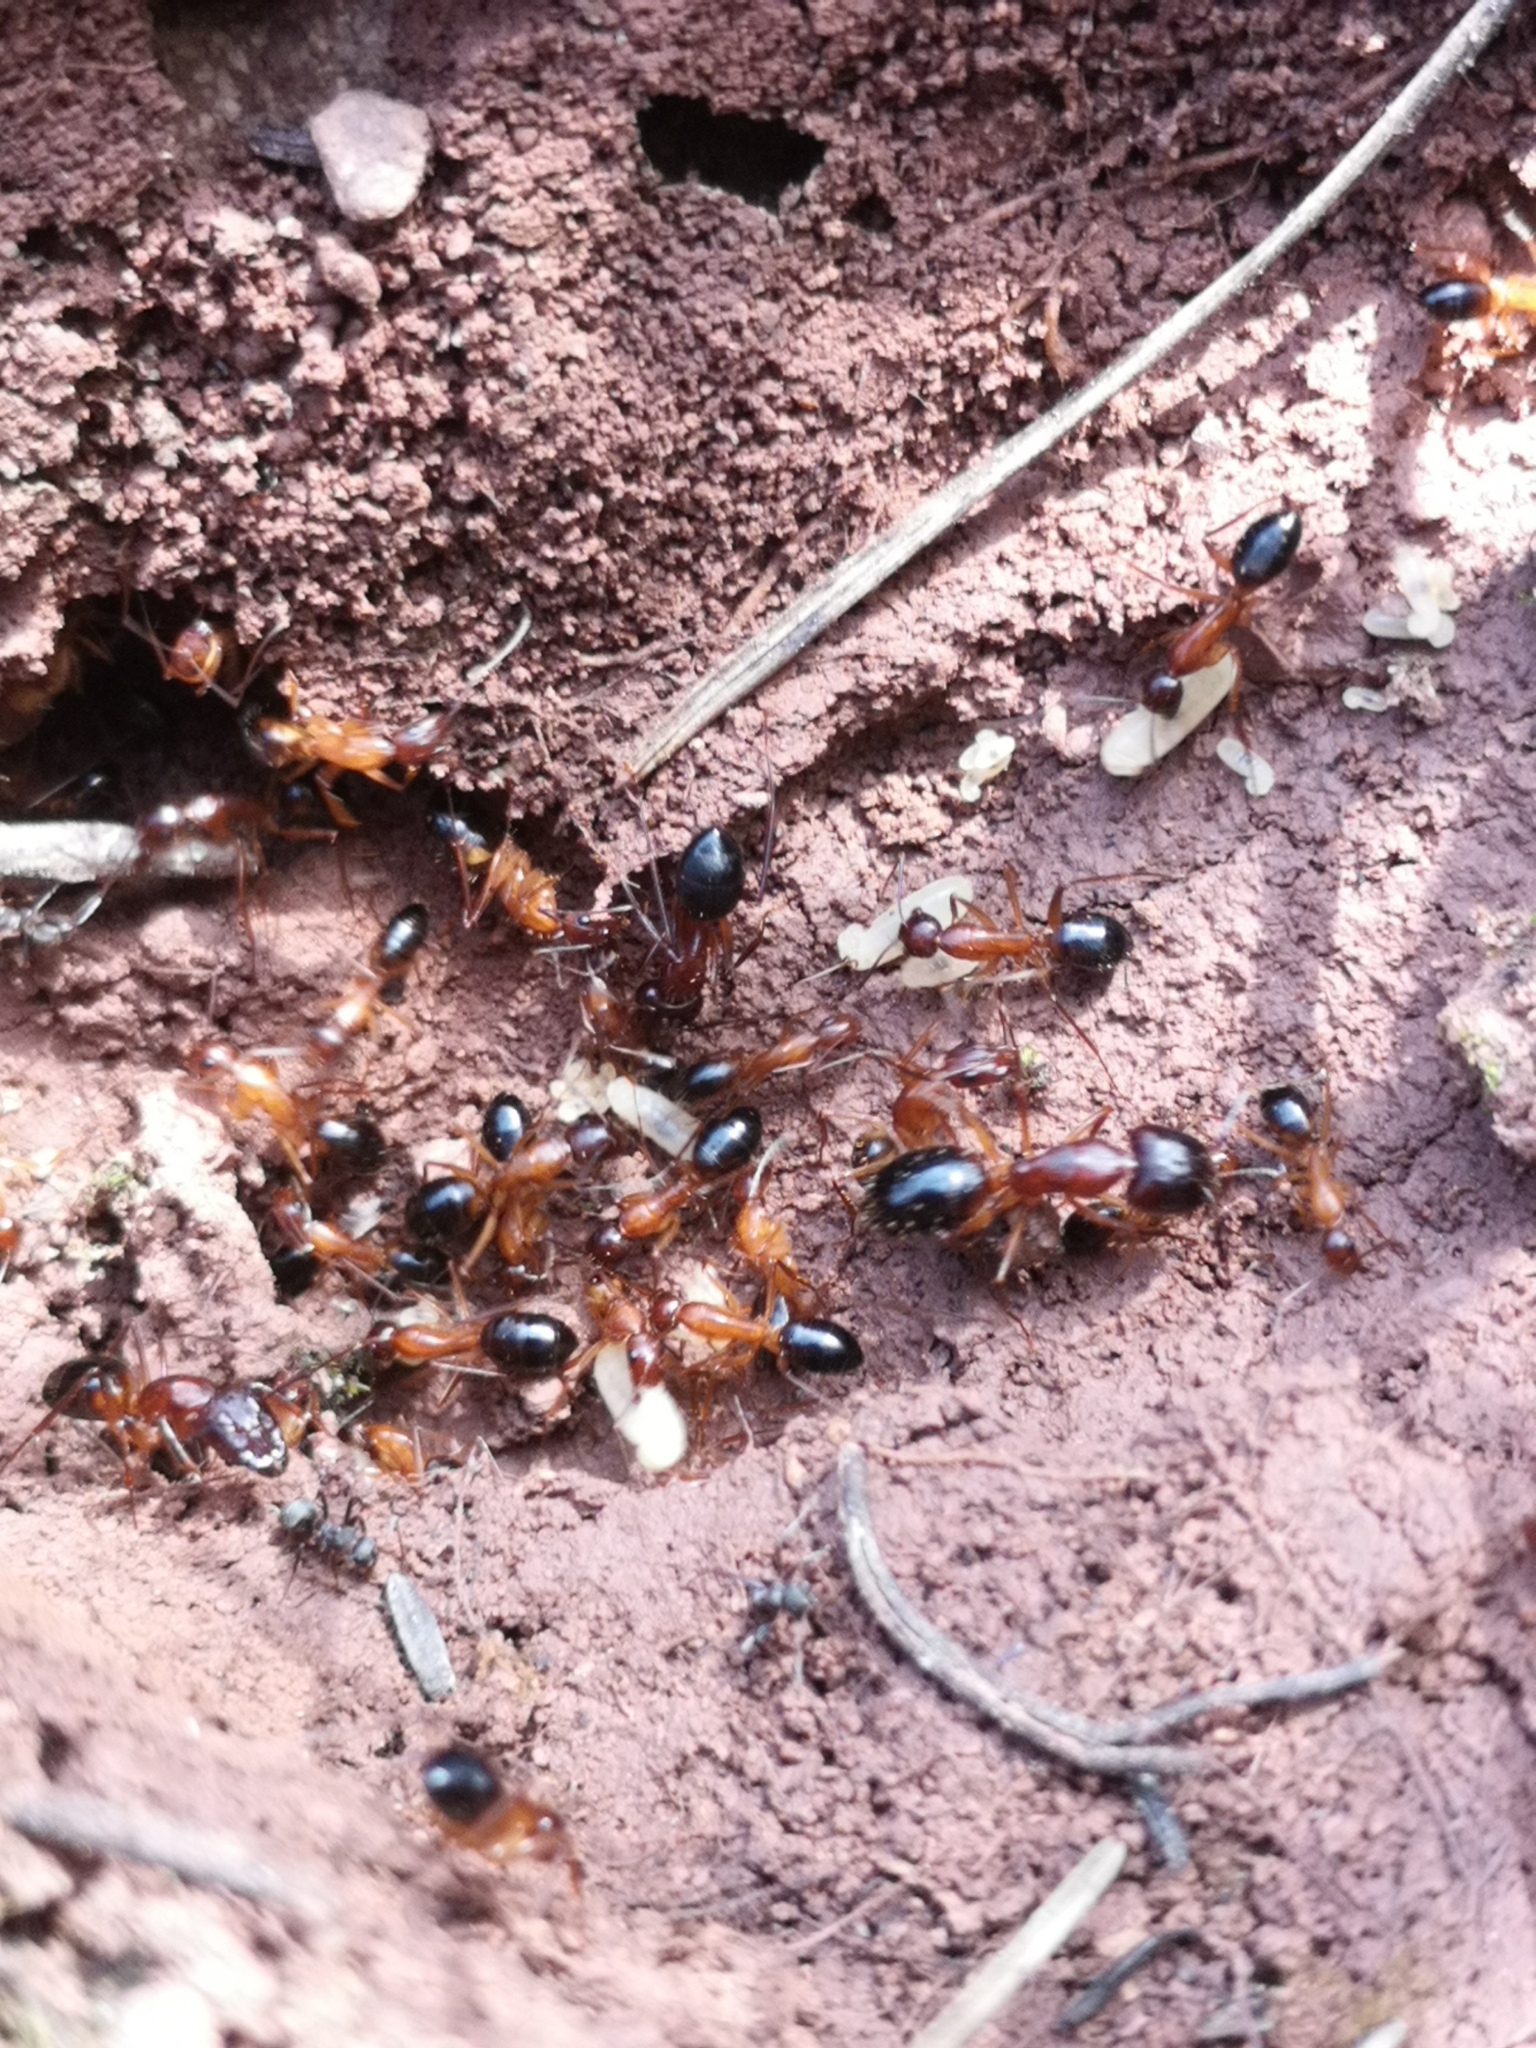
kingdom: Animalia
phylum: Arthropoda
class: Insecta
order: Hymenoptera
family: Formicidae
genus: Camponotus
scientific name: Camponotus pilicornis
